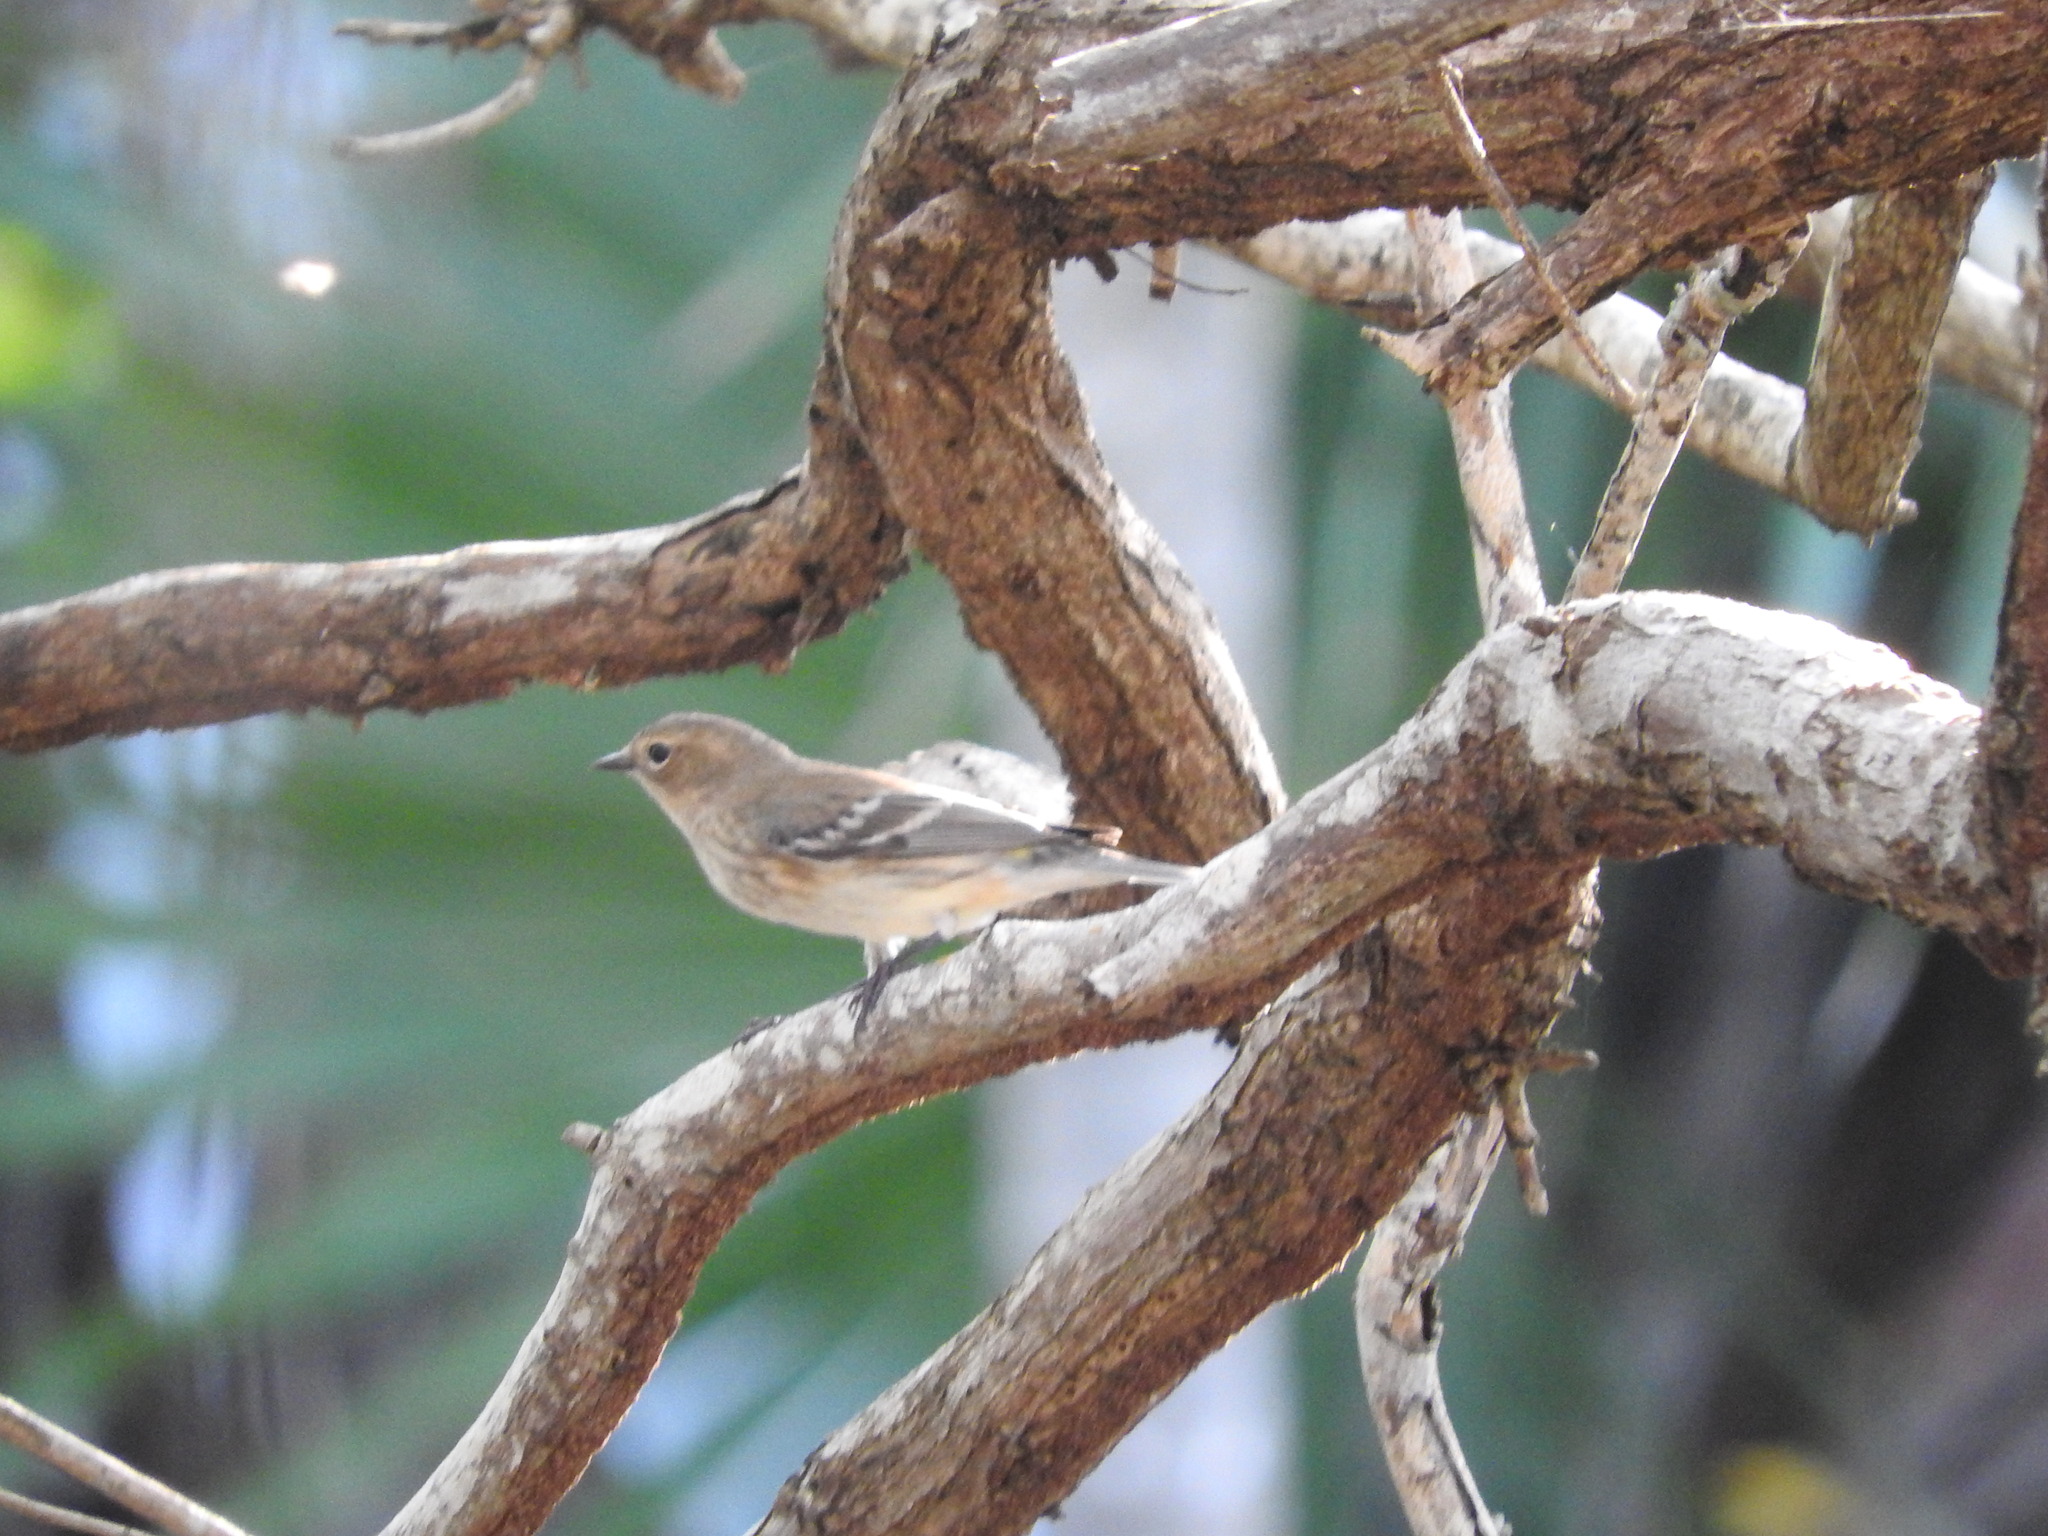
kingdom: Animalia
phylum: Chordata
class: Aves
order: Passeriformes
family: Parulidae
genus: Setophaga
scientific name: Setophaga coronata
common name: Myrtle warbler
